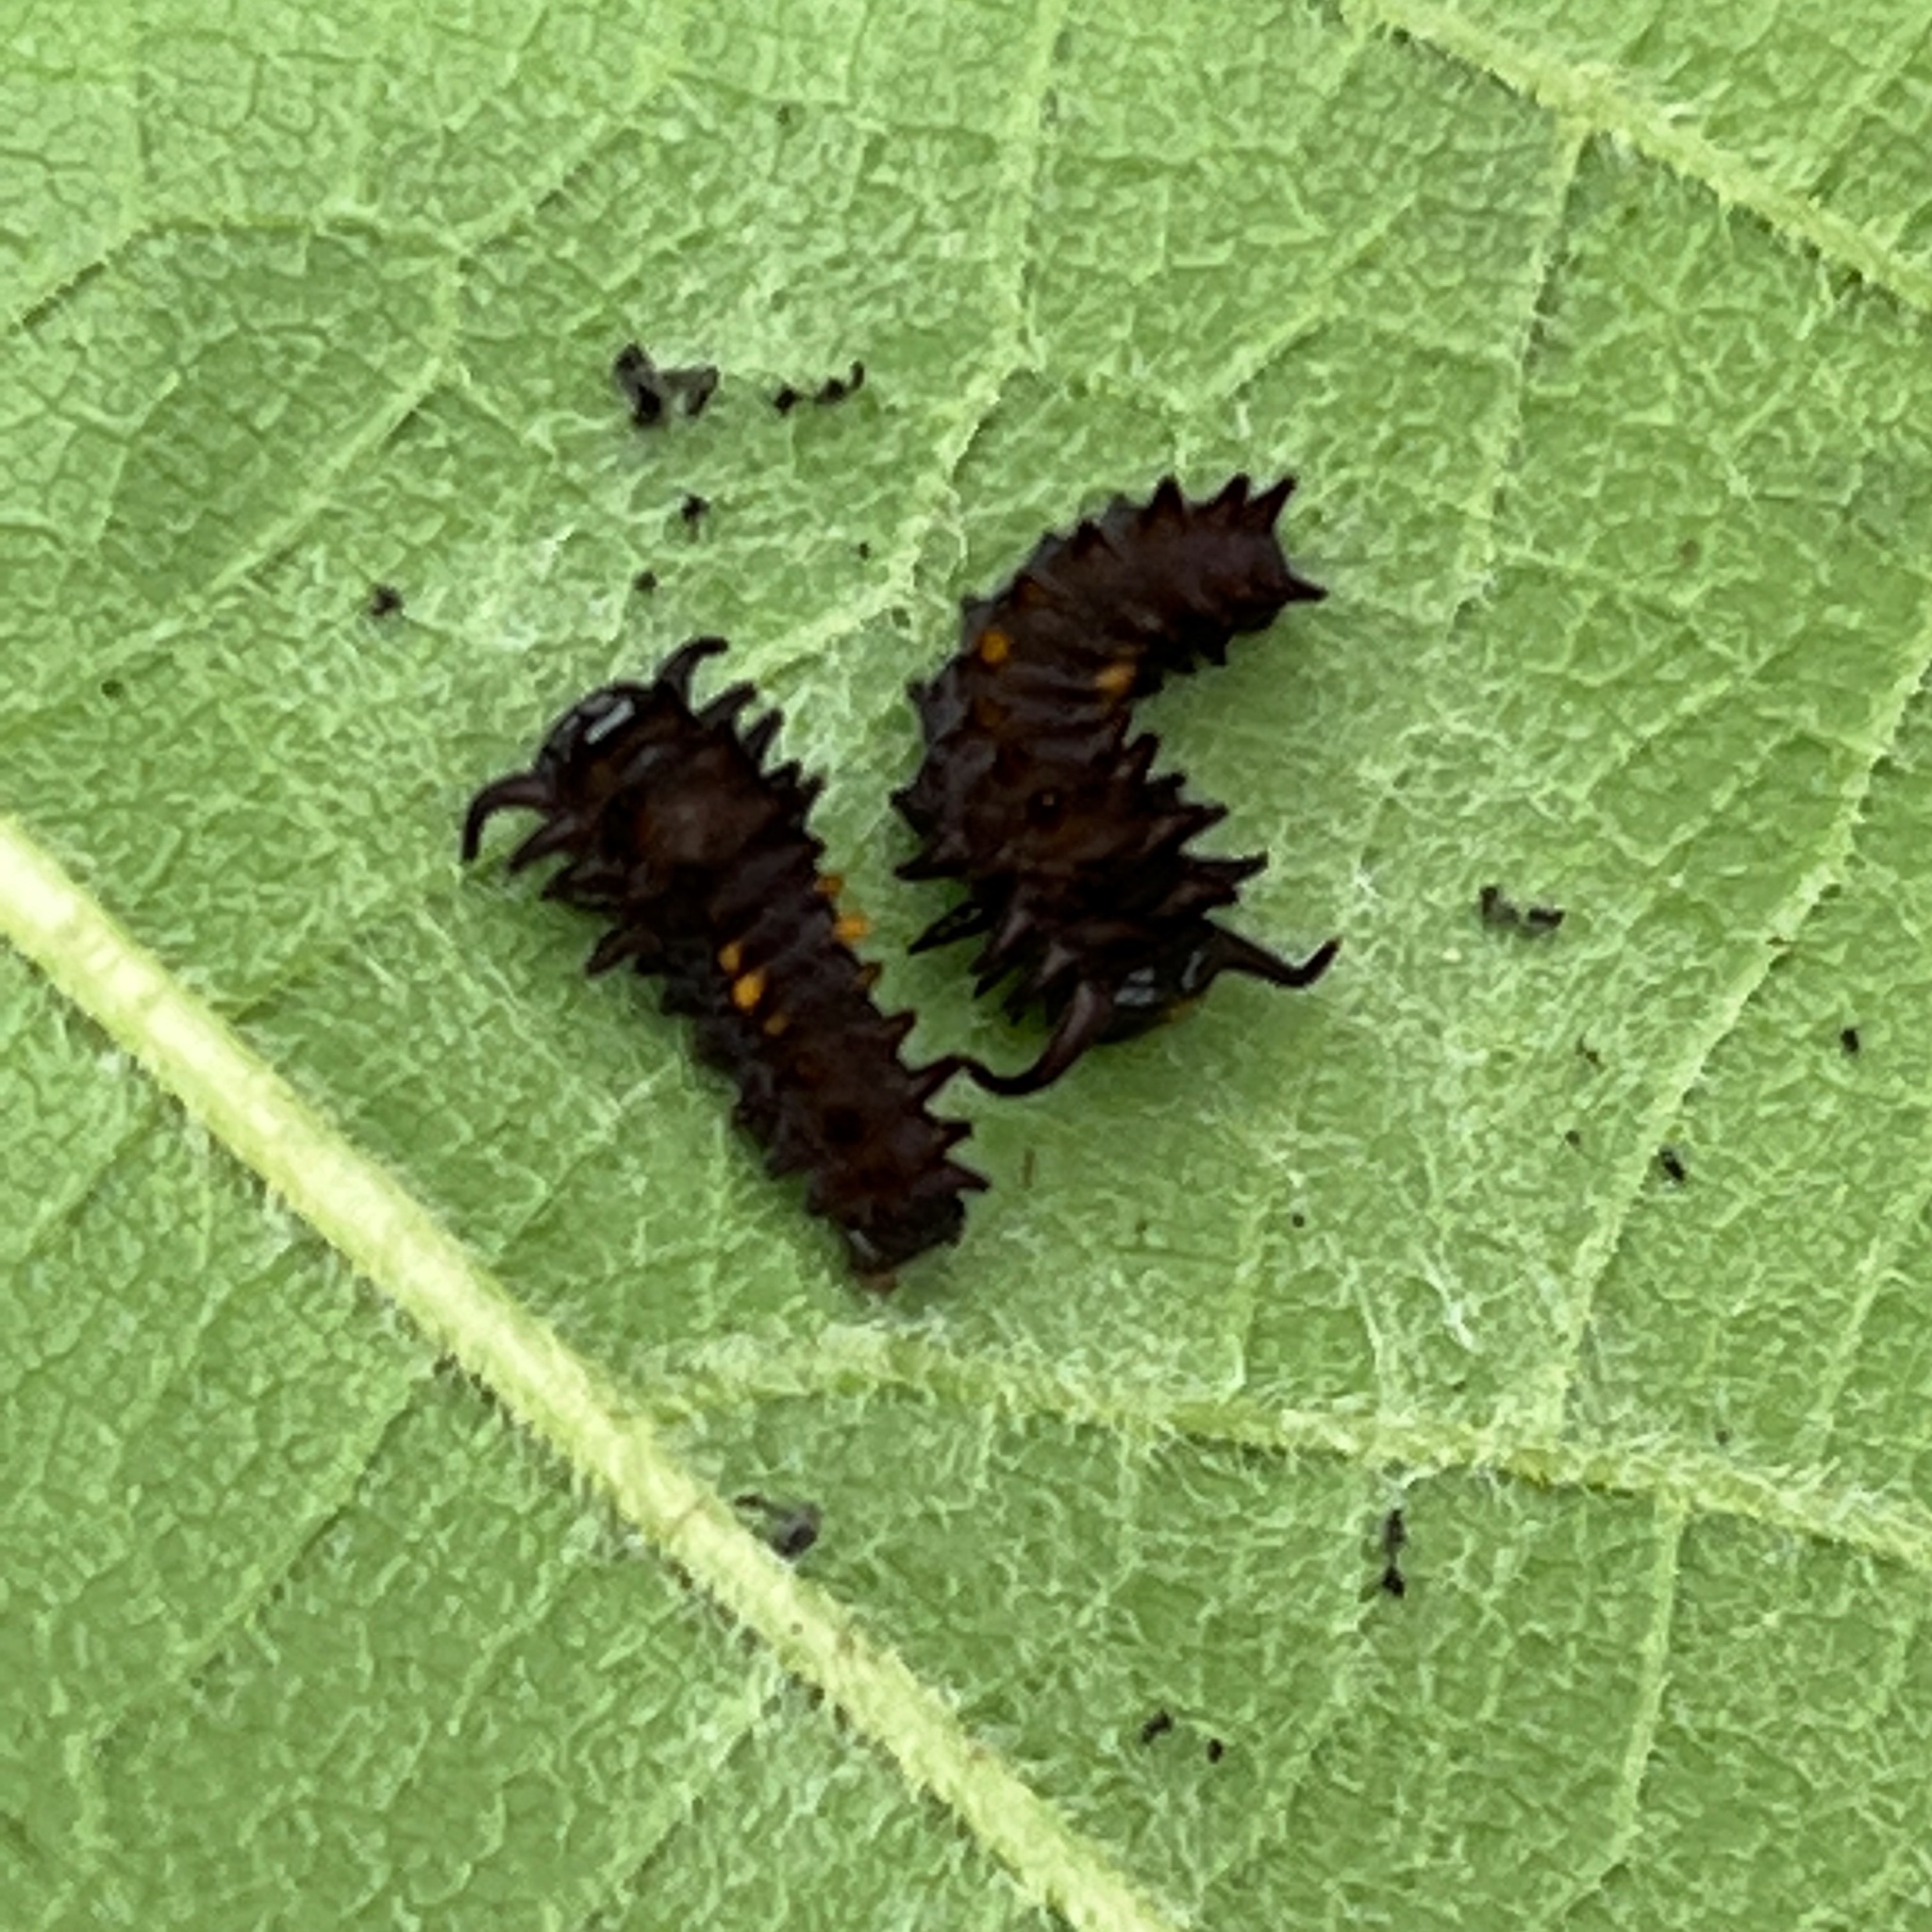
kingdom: Animalia
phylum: Arthropoda
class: Insecta
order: Lepidoptera
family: Papilionidae
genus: Battus
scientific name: Battus philenor
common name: Pipevine swallowtail
